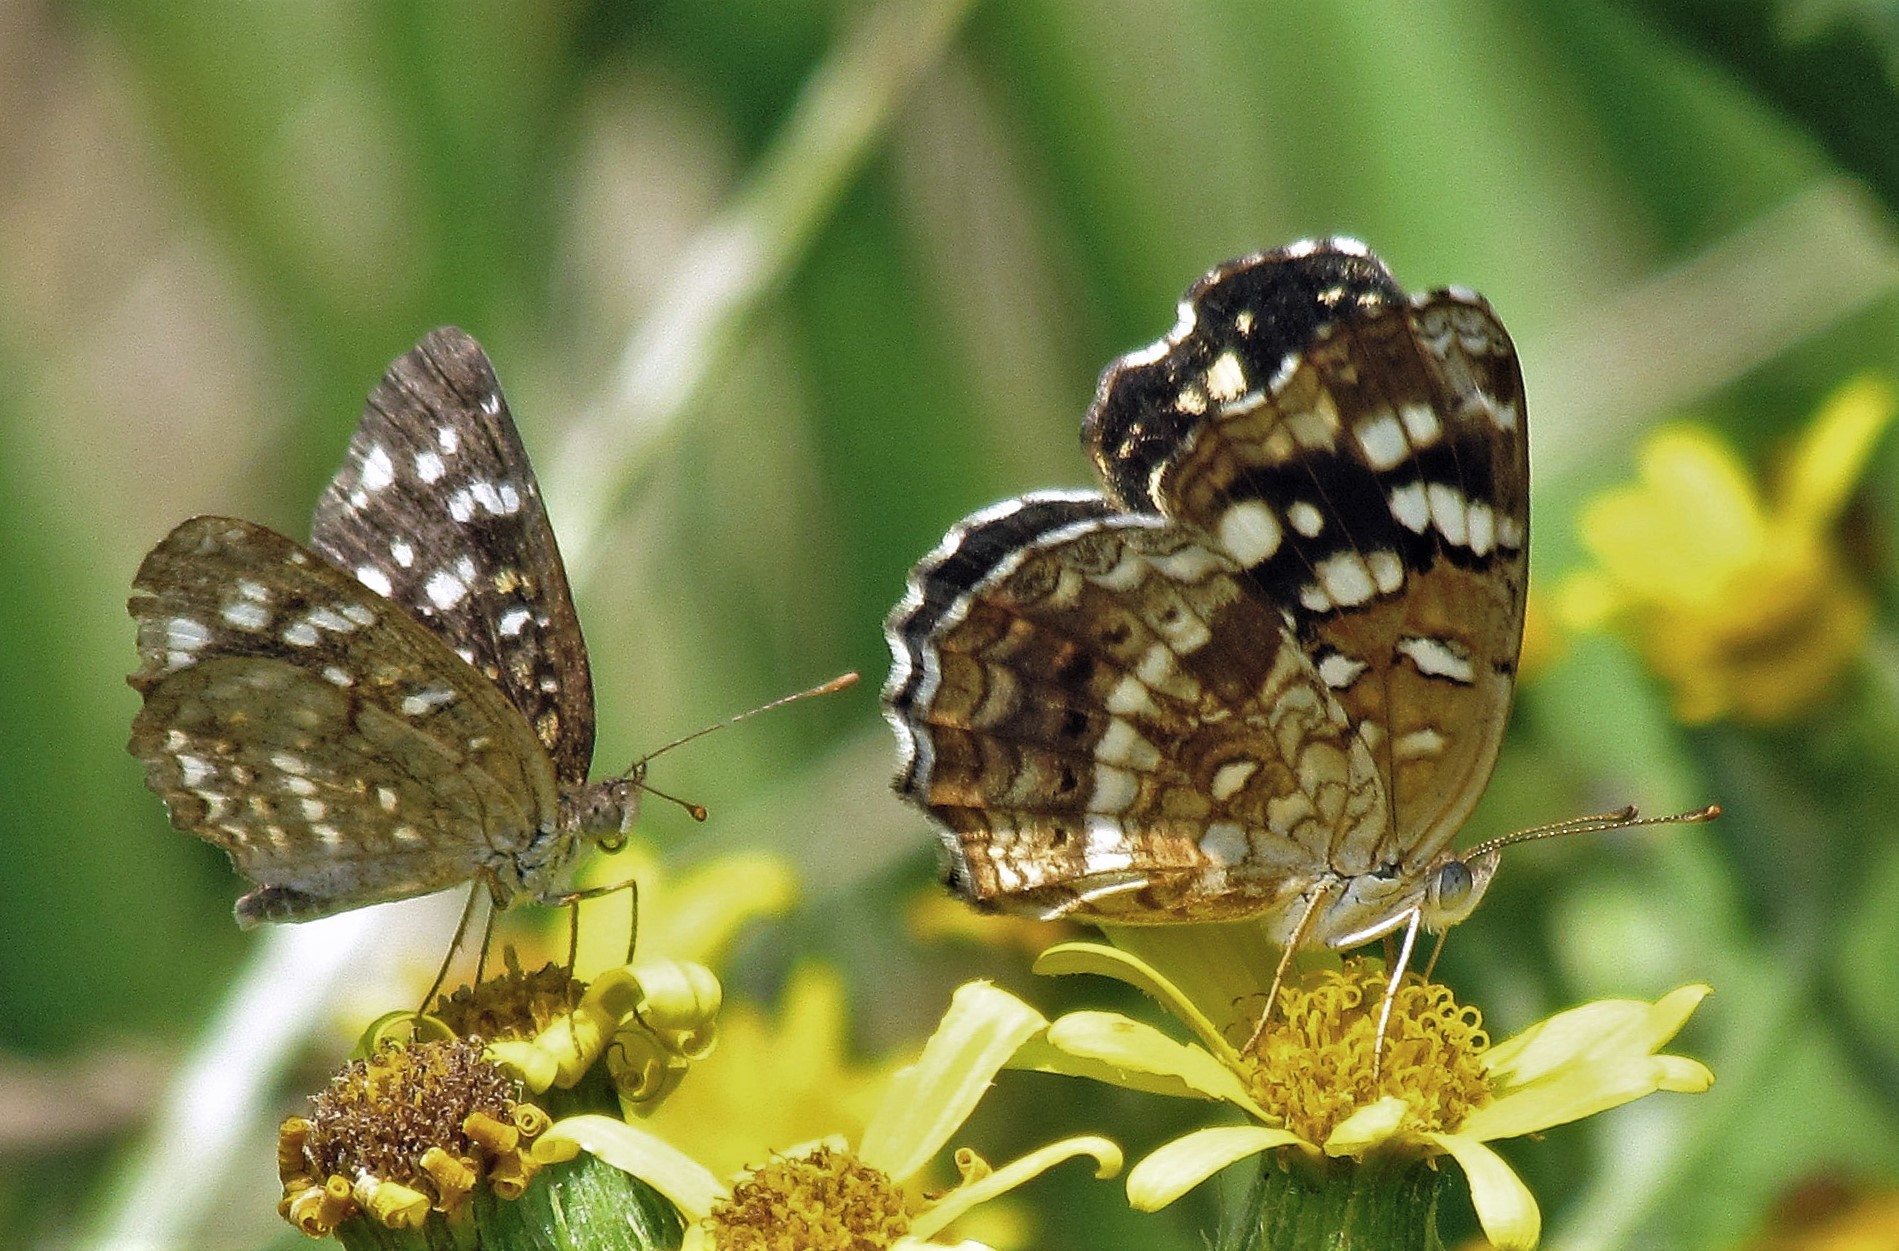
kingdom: Animalia
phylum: Arthropoda
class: Insecta
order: Lepidoptera
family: Nymphalidae
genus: Anthanassa
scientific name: Anthanassa hermas
